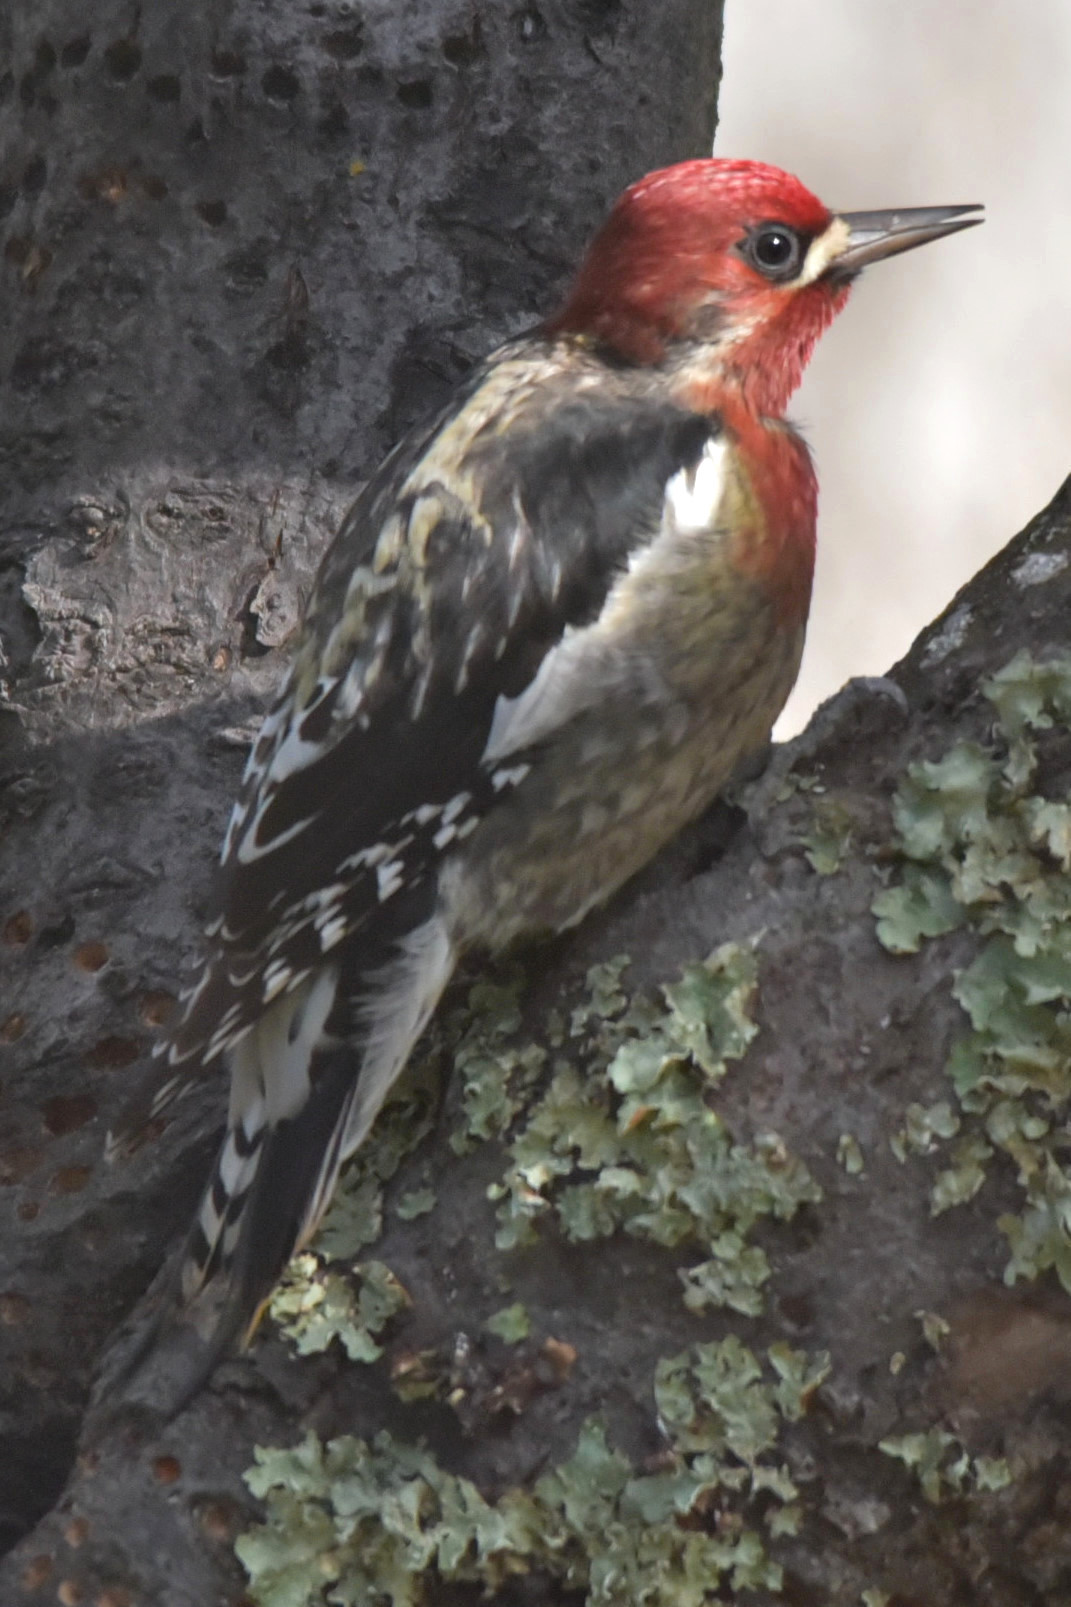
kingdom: Animalia
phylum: Chordata
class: Aves
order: Piciformes
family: Picidae
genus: Sphyrapicus
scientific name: Sphyrapicus ruber
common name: Red-breasted sapsucker
